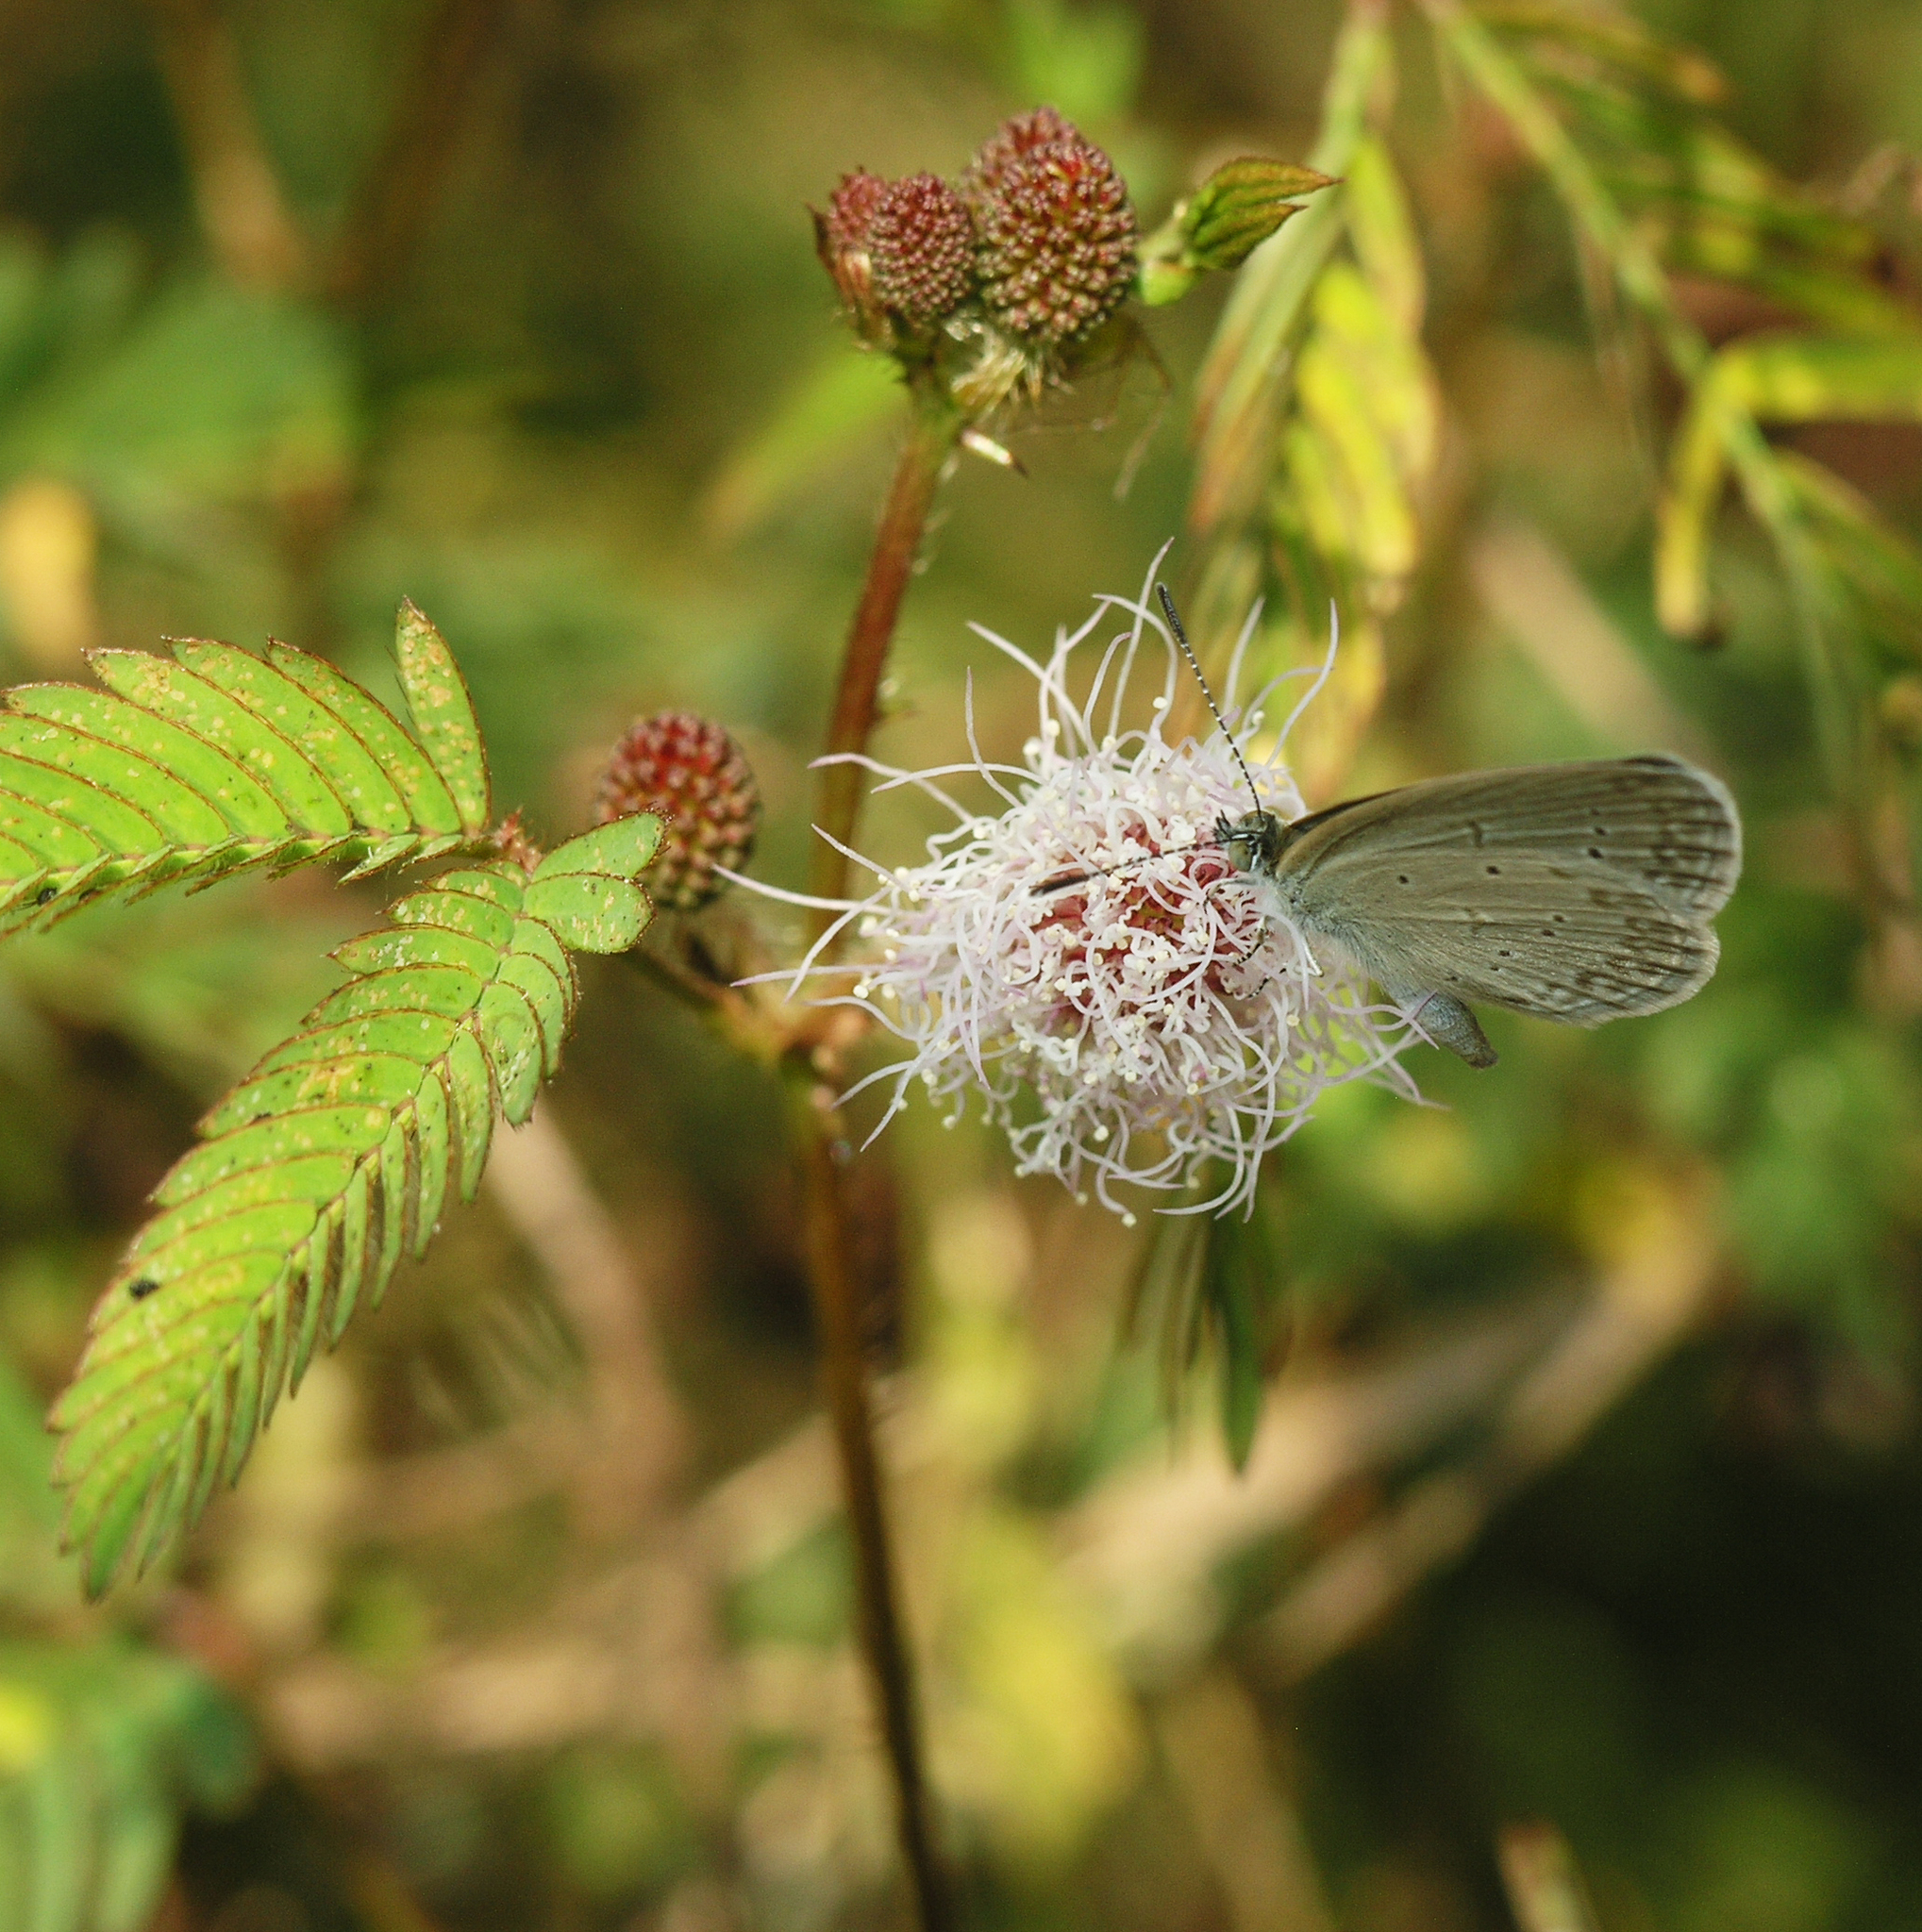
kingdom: Animalia
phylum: Arthropoda
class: Insecta
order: Lepidoptera
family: Lycaenidae
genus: Zizina
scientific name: Zizina otis
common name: Lesser grass blue
